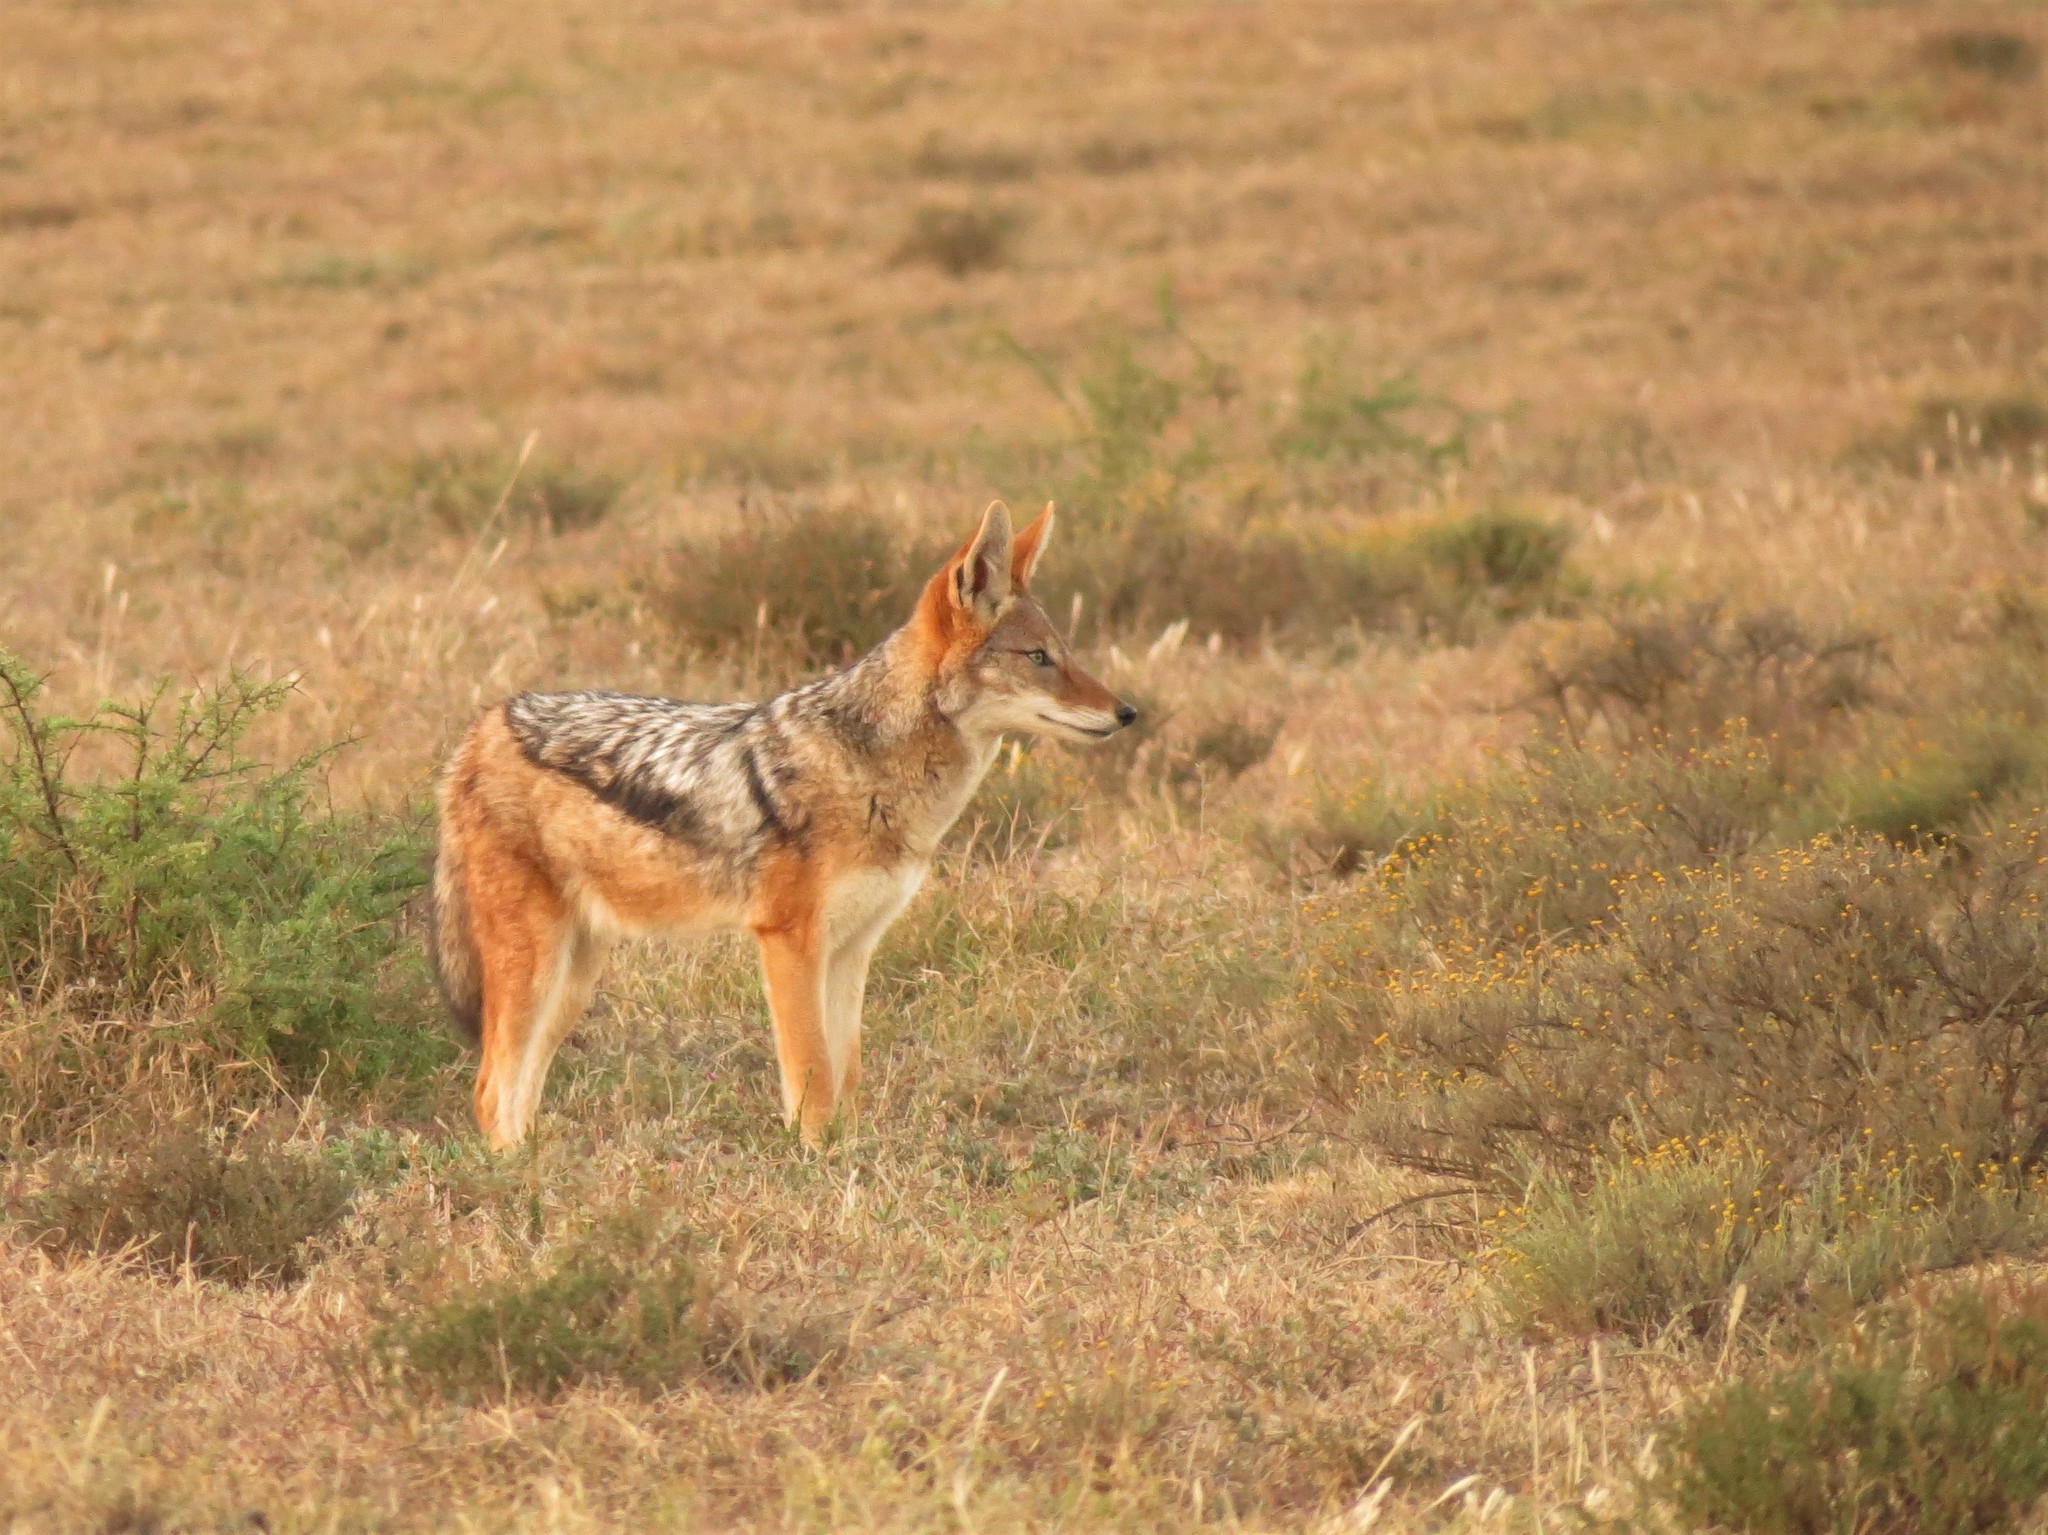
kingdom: Animalia
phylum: Chordata
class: Mammalia
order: Carnivora
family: Canidae
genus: Lupulella
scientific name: Lupulella
